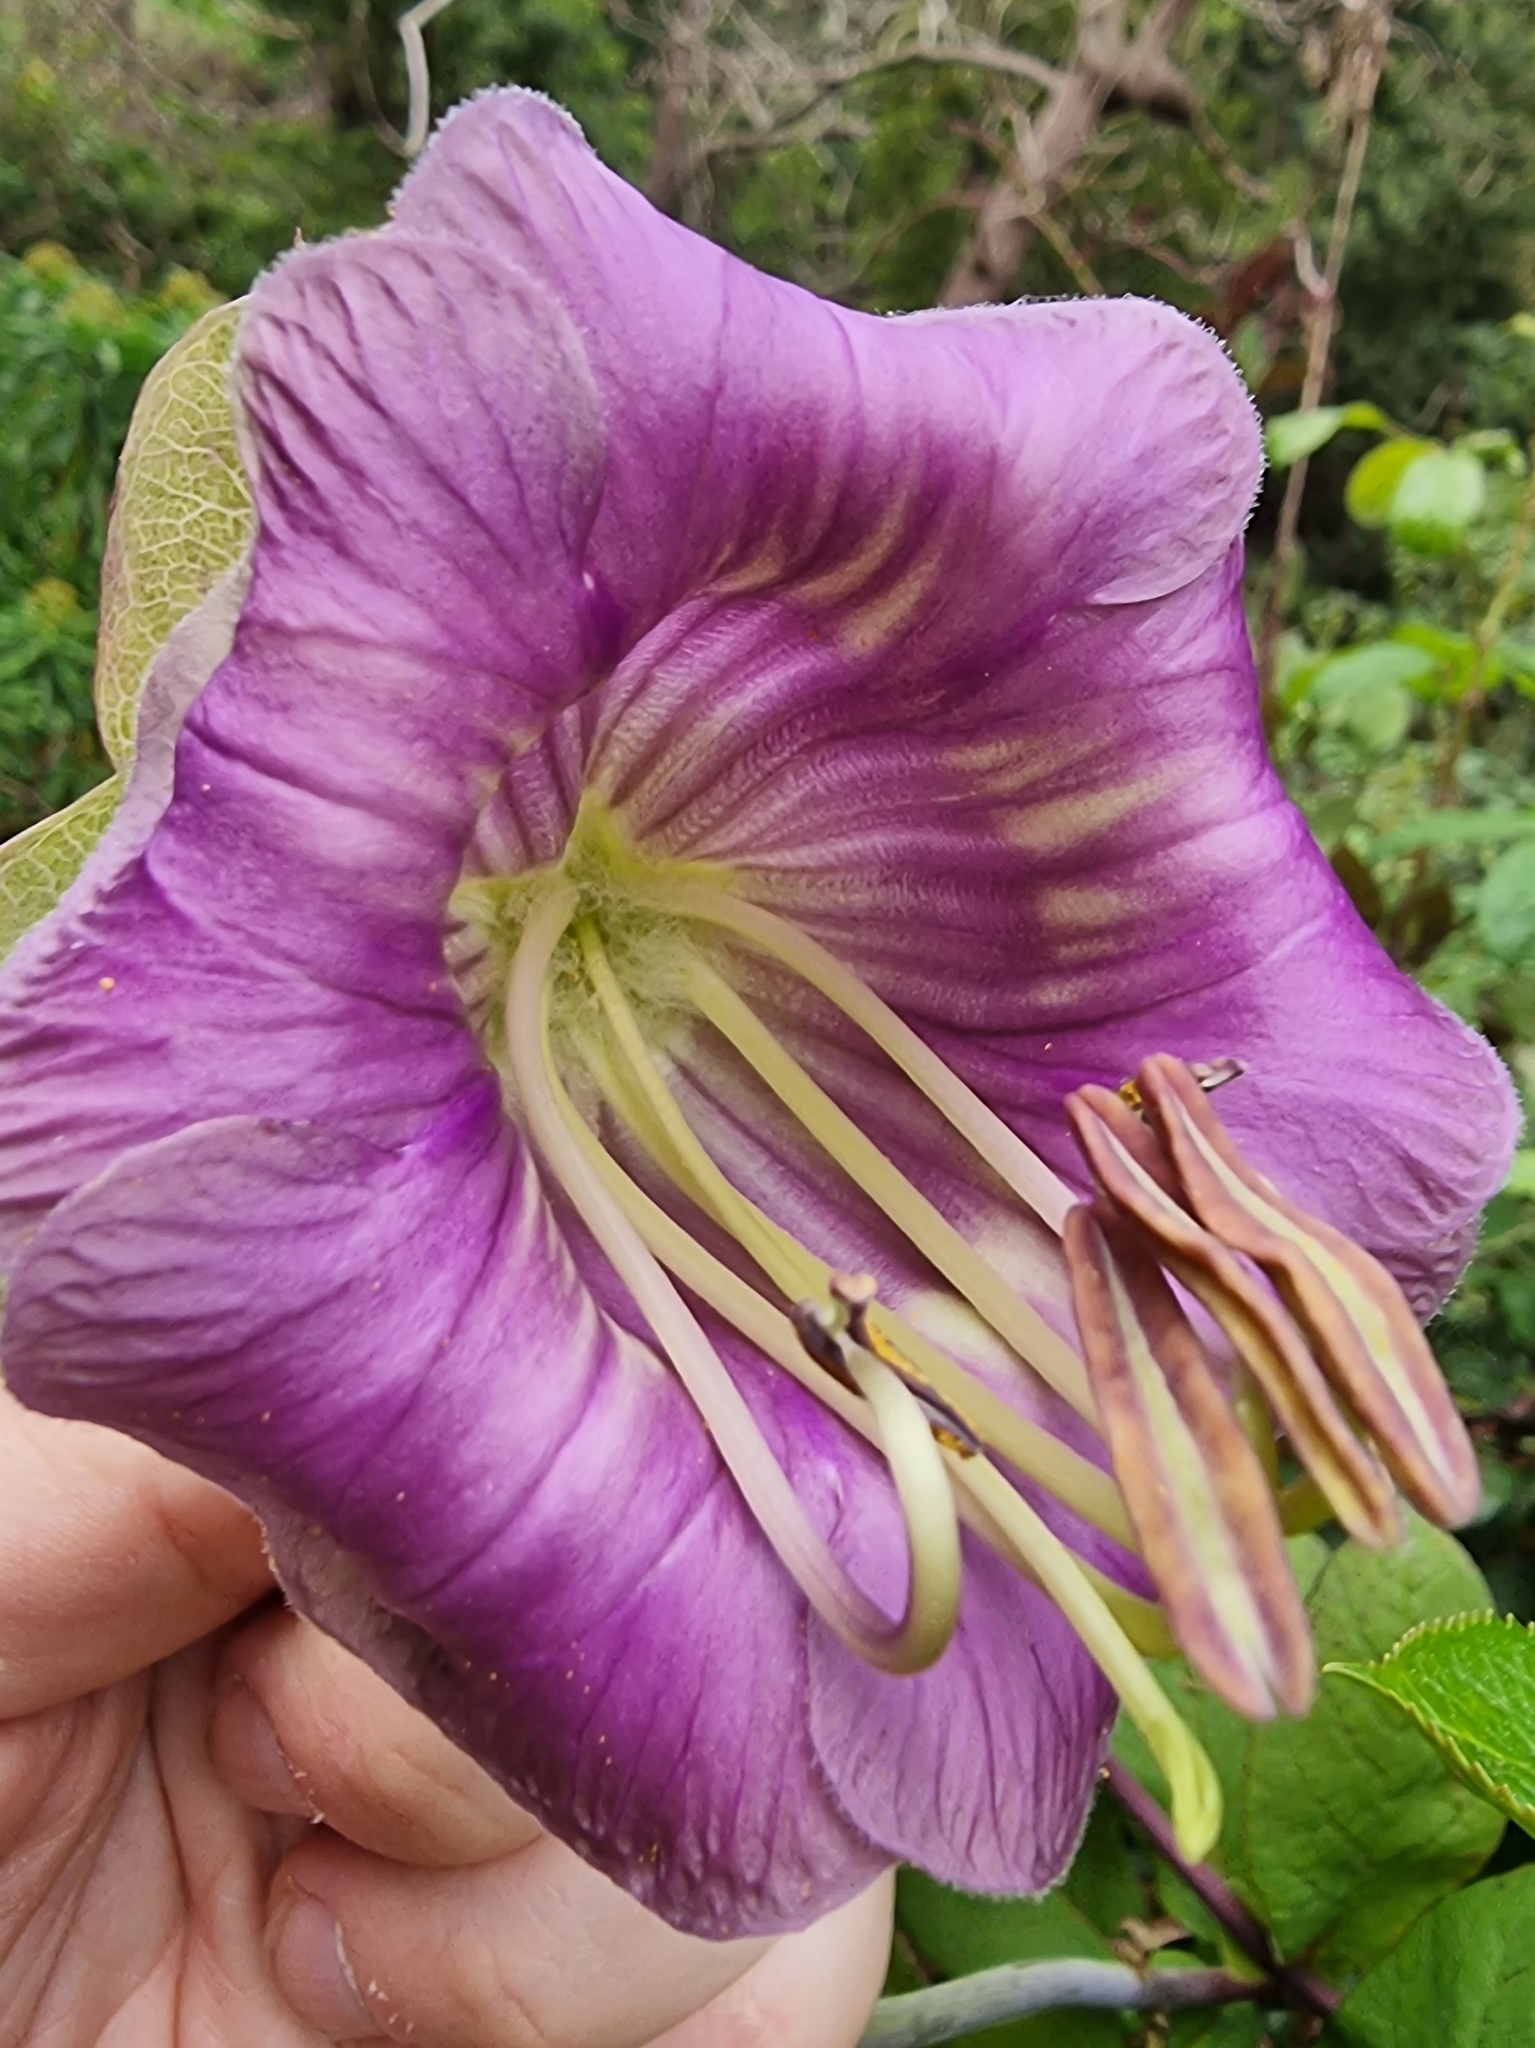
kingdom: Plantae
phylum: Tracheophyta
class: Magnoliopsida
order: Ericales
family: Polemoniaceae
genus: Cobaea
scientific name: Cobaea scandens
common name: Cup-and-saucer-vine
